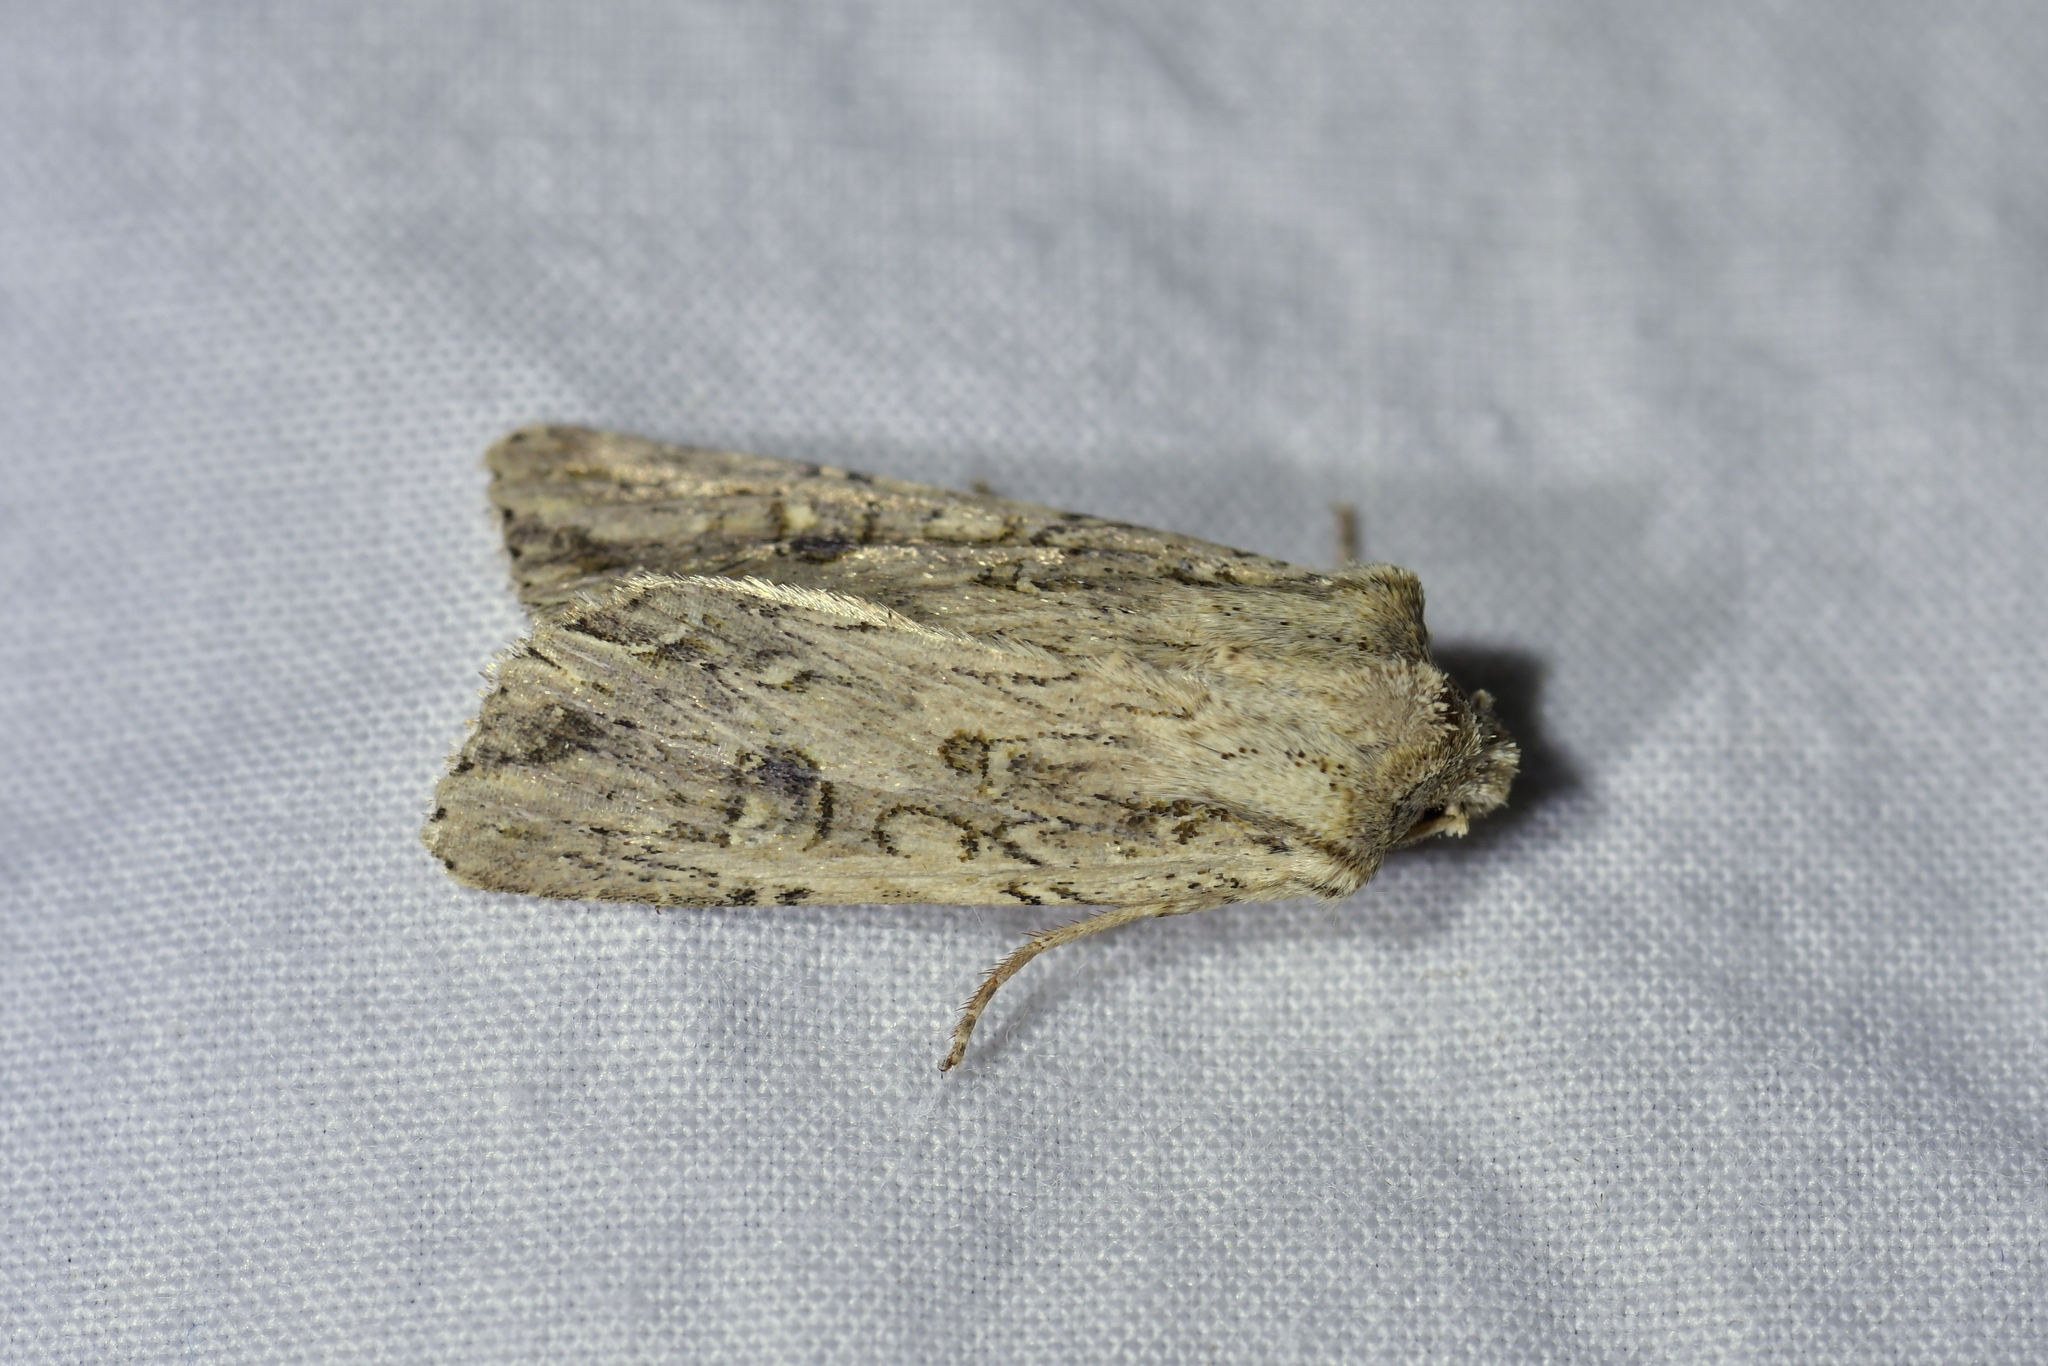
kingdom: Animalia
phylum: Arthropoda
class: Insecta
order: Lepidoptera
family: Noctuidae
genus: Ichneutica
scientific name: Ichneutica lignana
